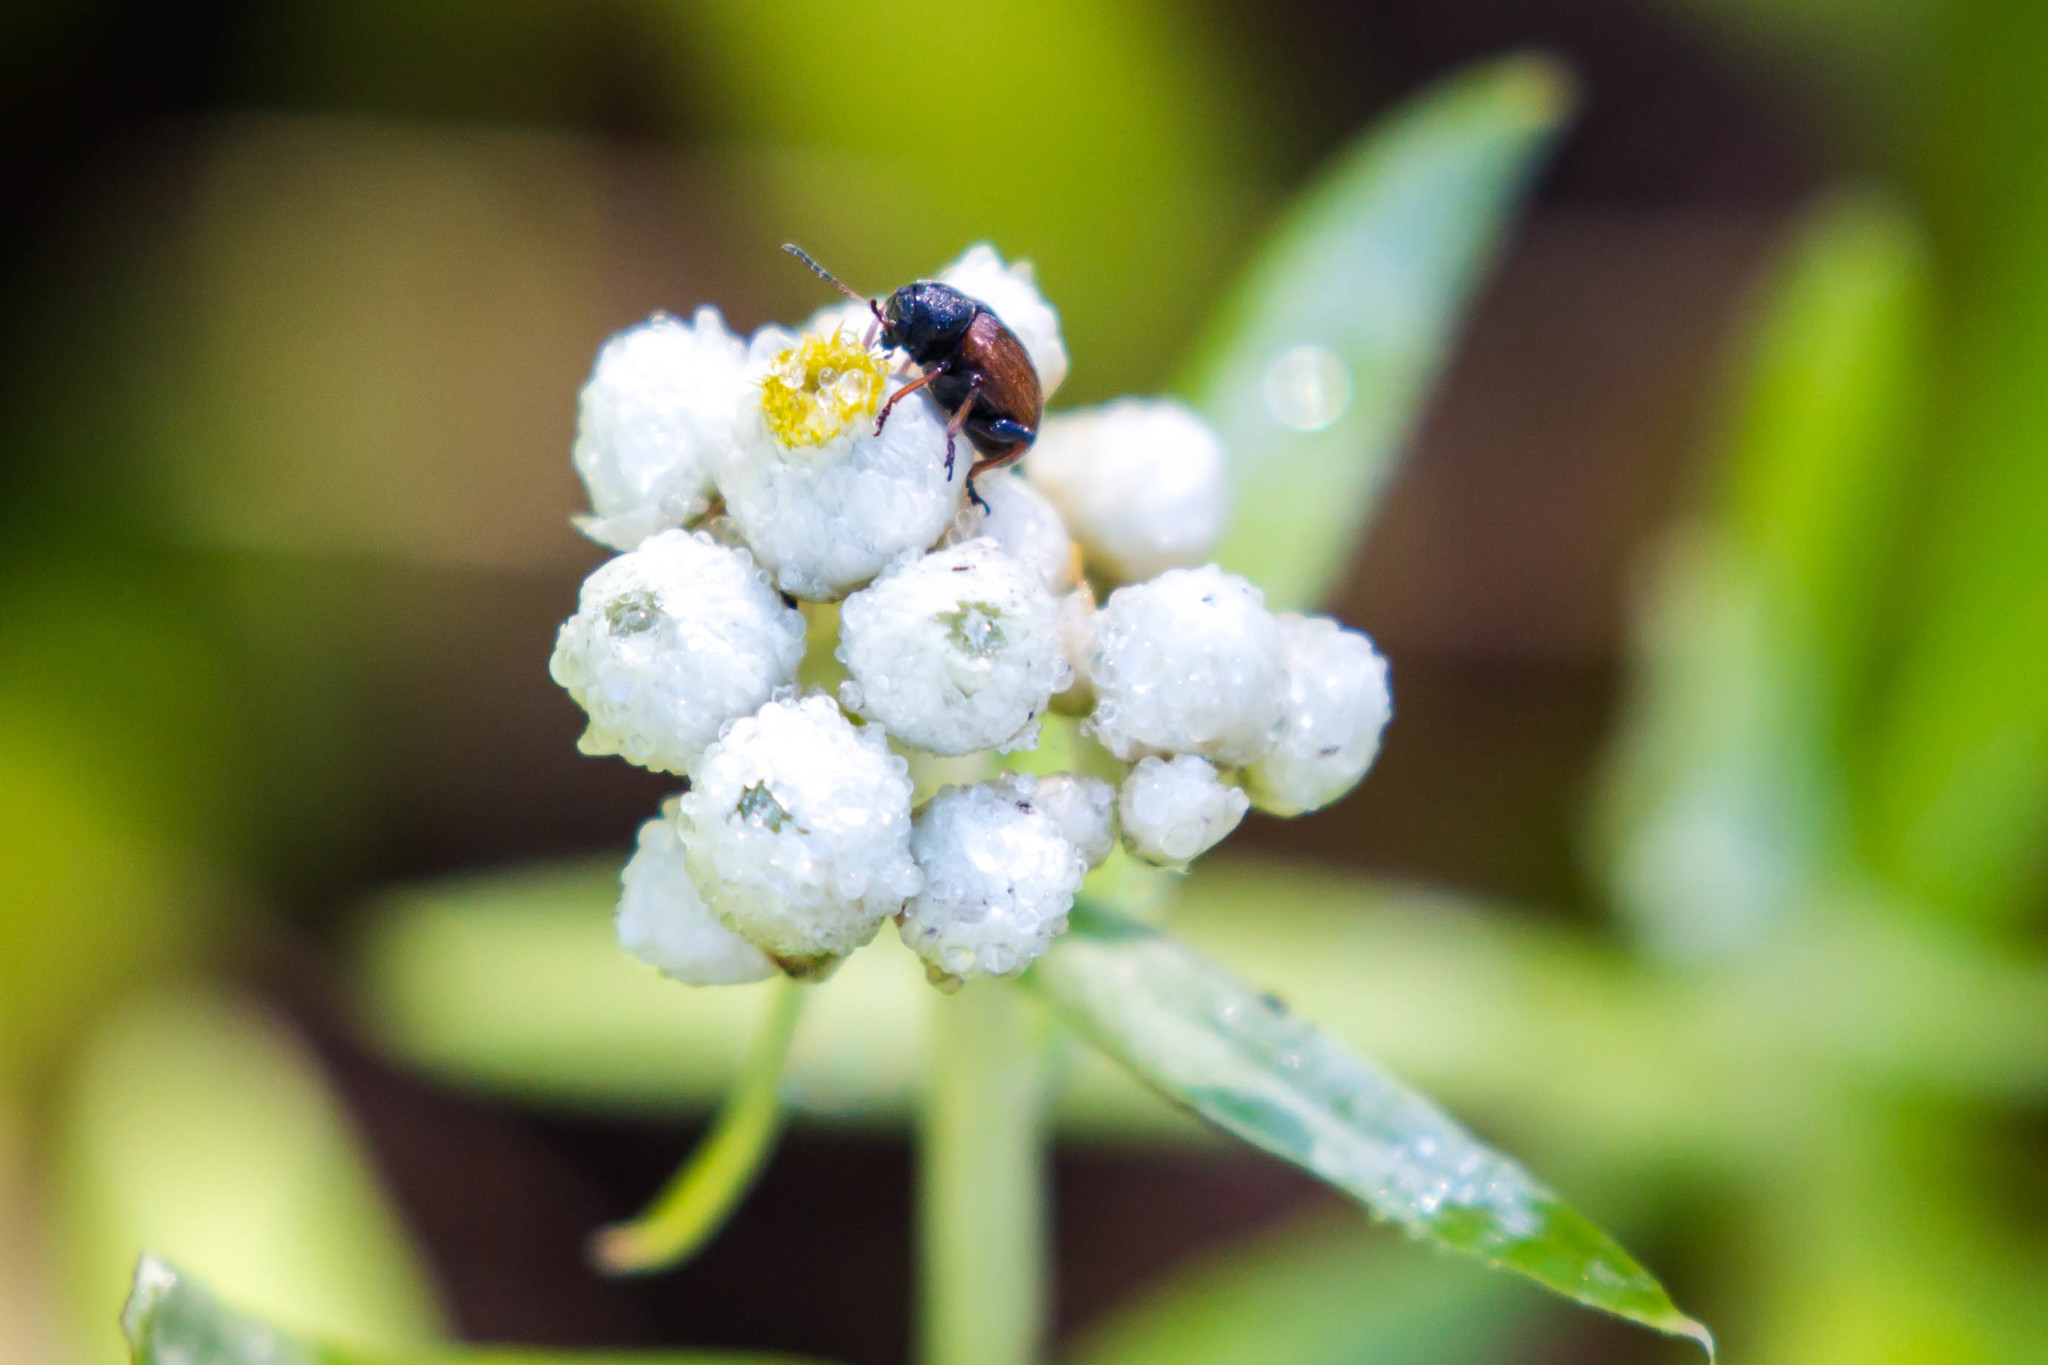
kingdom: Animalia
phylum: Arthropoda
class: Insecta
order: Coleoptera
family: Chrysomelidae
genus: Bromius
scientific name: Bromius obscurus
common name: Western grape rootworm
